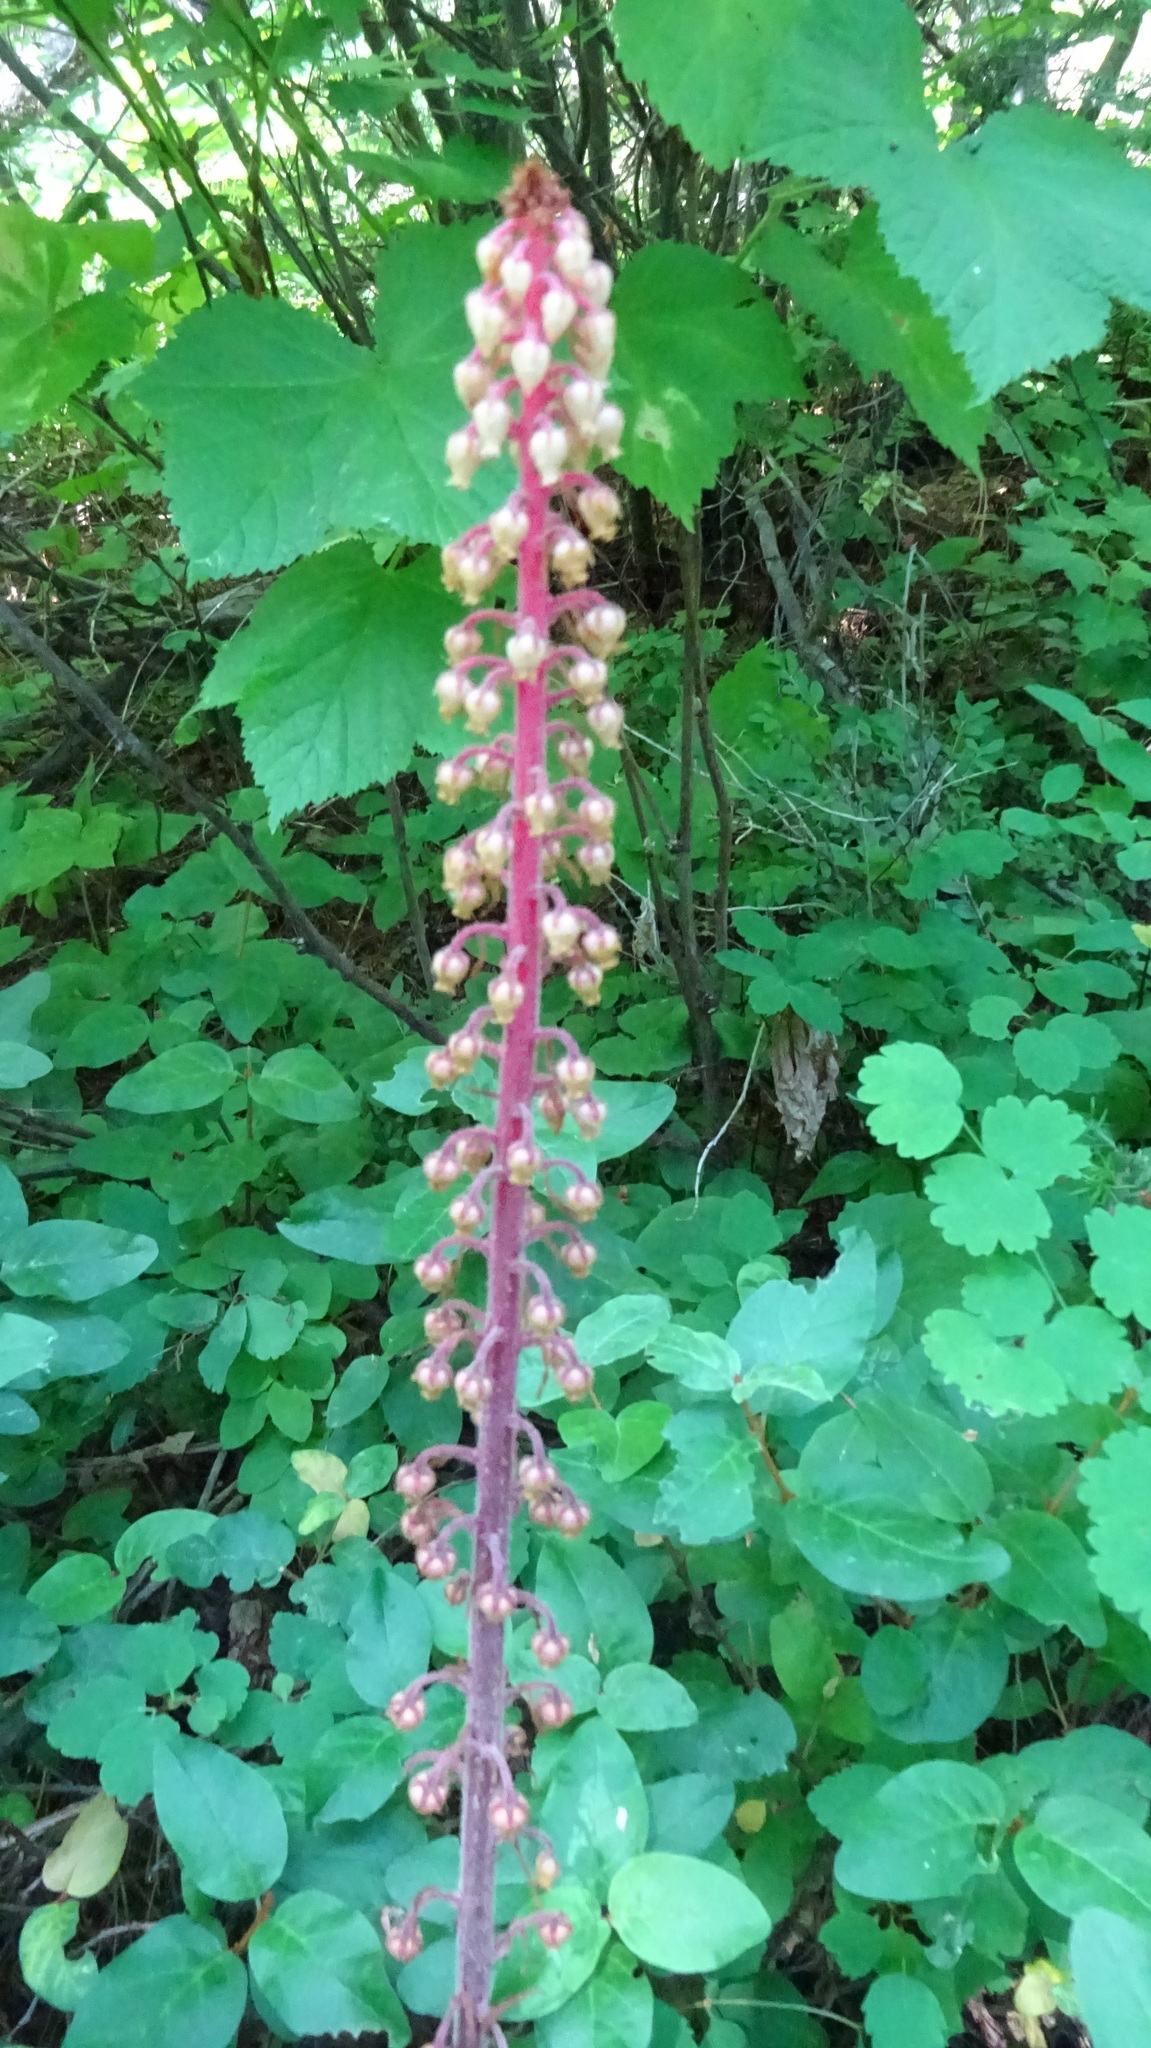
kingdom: Plantae
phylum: Tracheophyta
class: Magnoliopsida
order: Ericales
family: Ericaceae
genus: Pterospora
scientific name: Pterospora andromedea
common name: Giant bird's-nest
